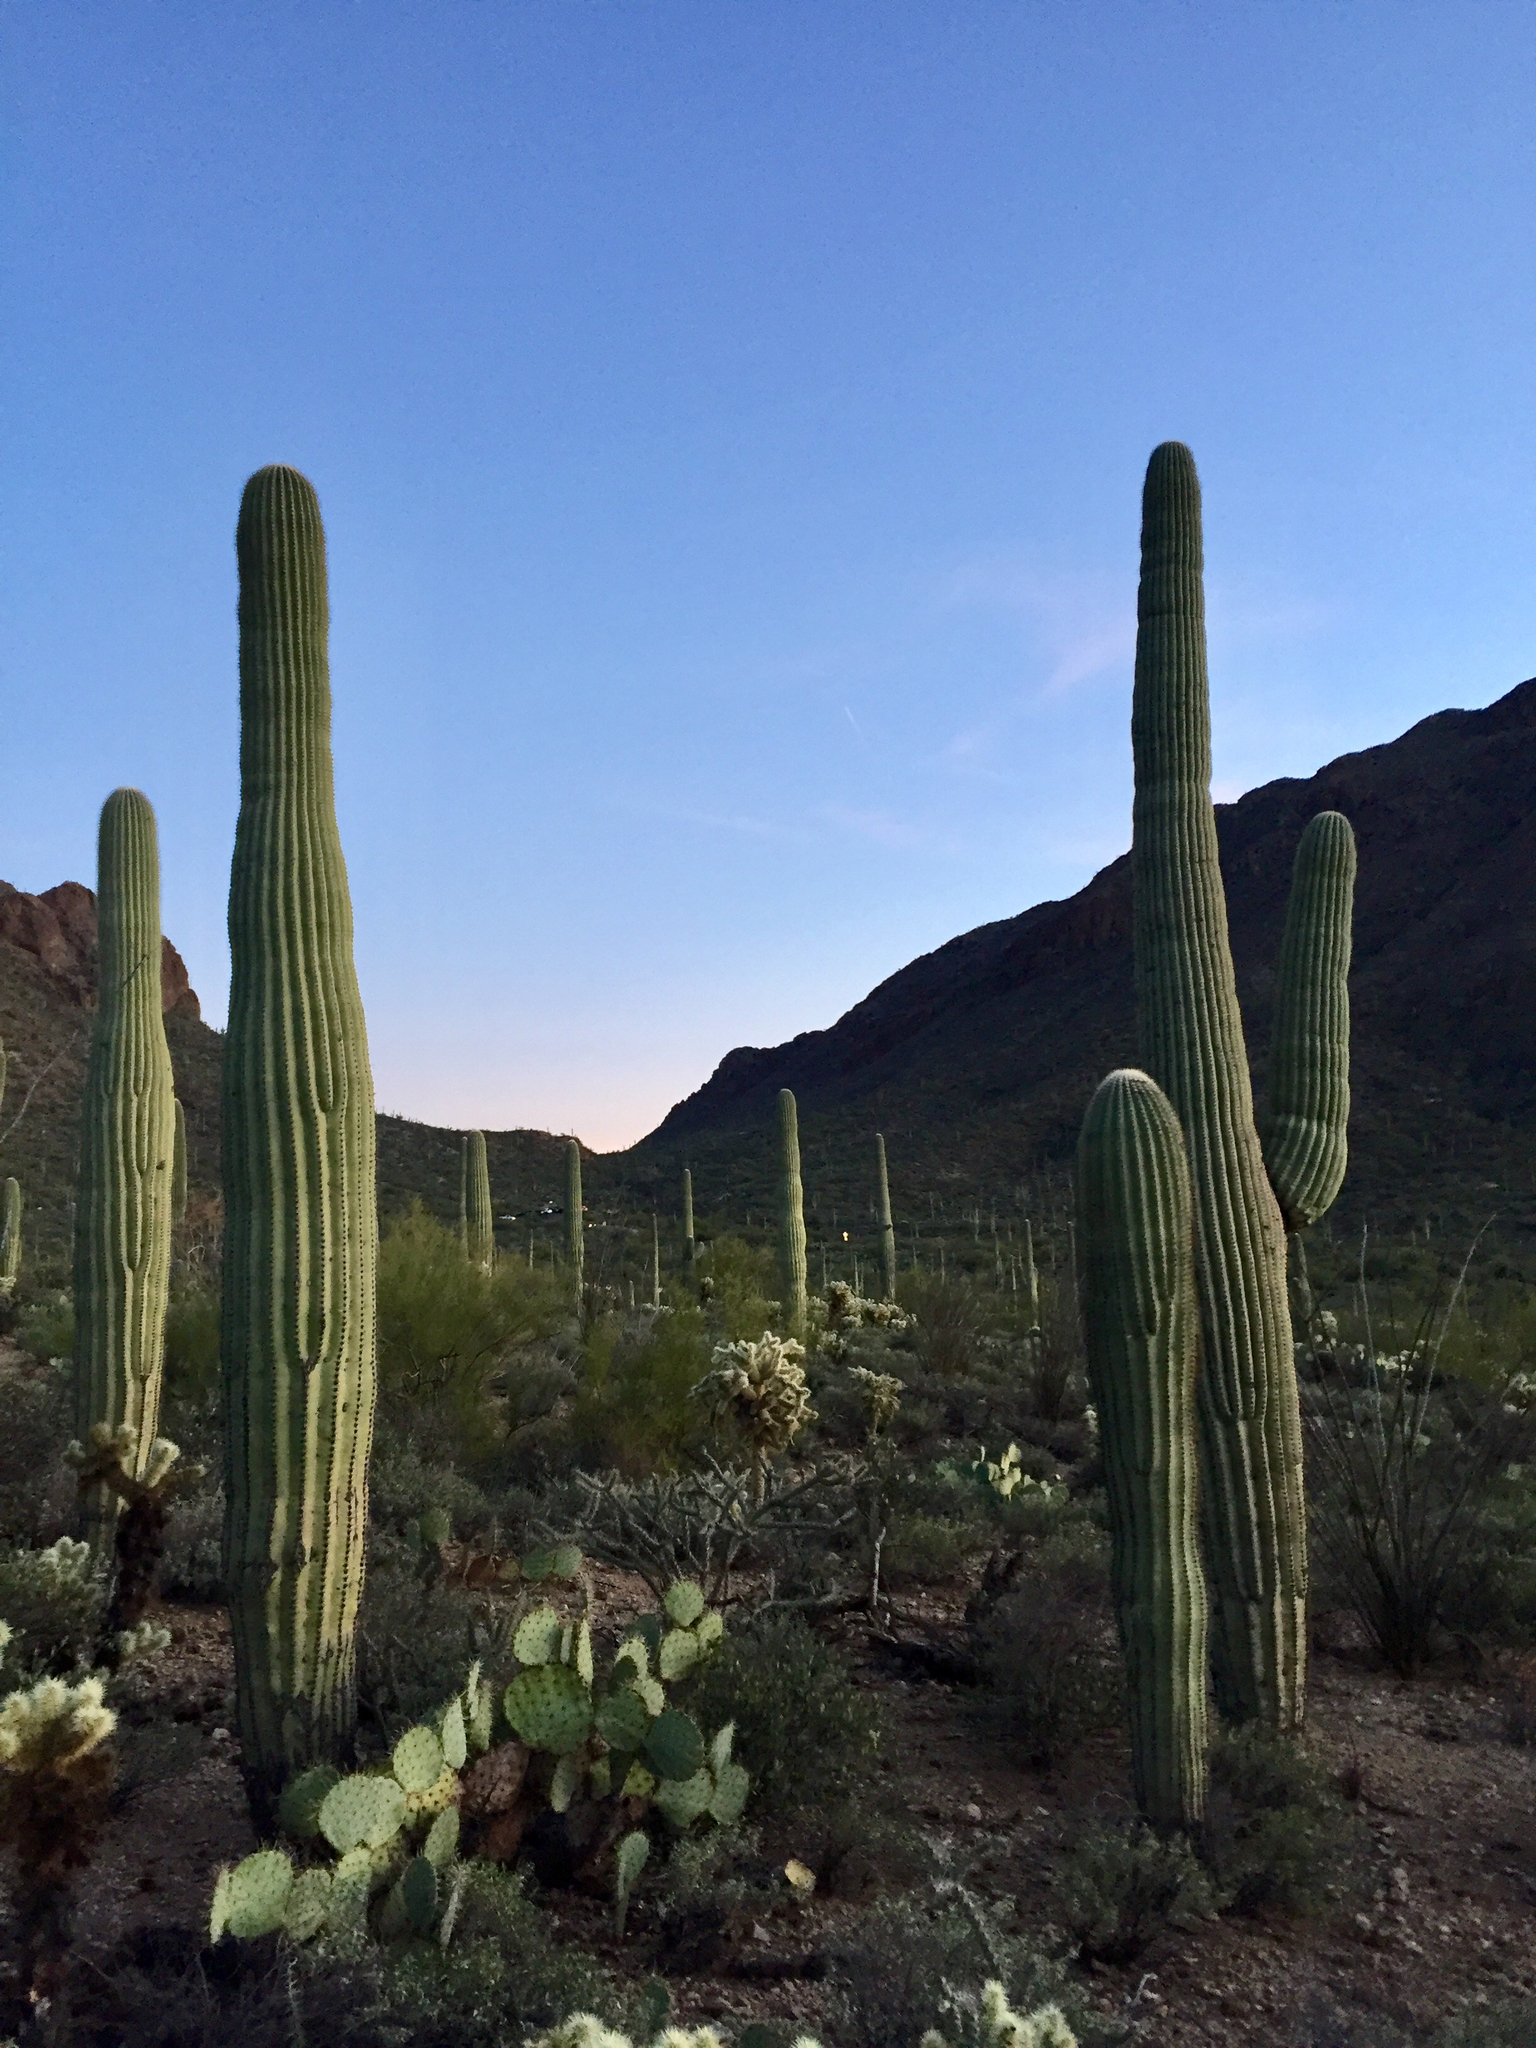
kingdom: Plantae
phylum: Tracheophyta
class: Magnoliopsida
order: Caryophyllales
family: Cactaceae
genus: Carnegiea
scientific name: Carnegiea gigantea
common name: Saguaro
